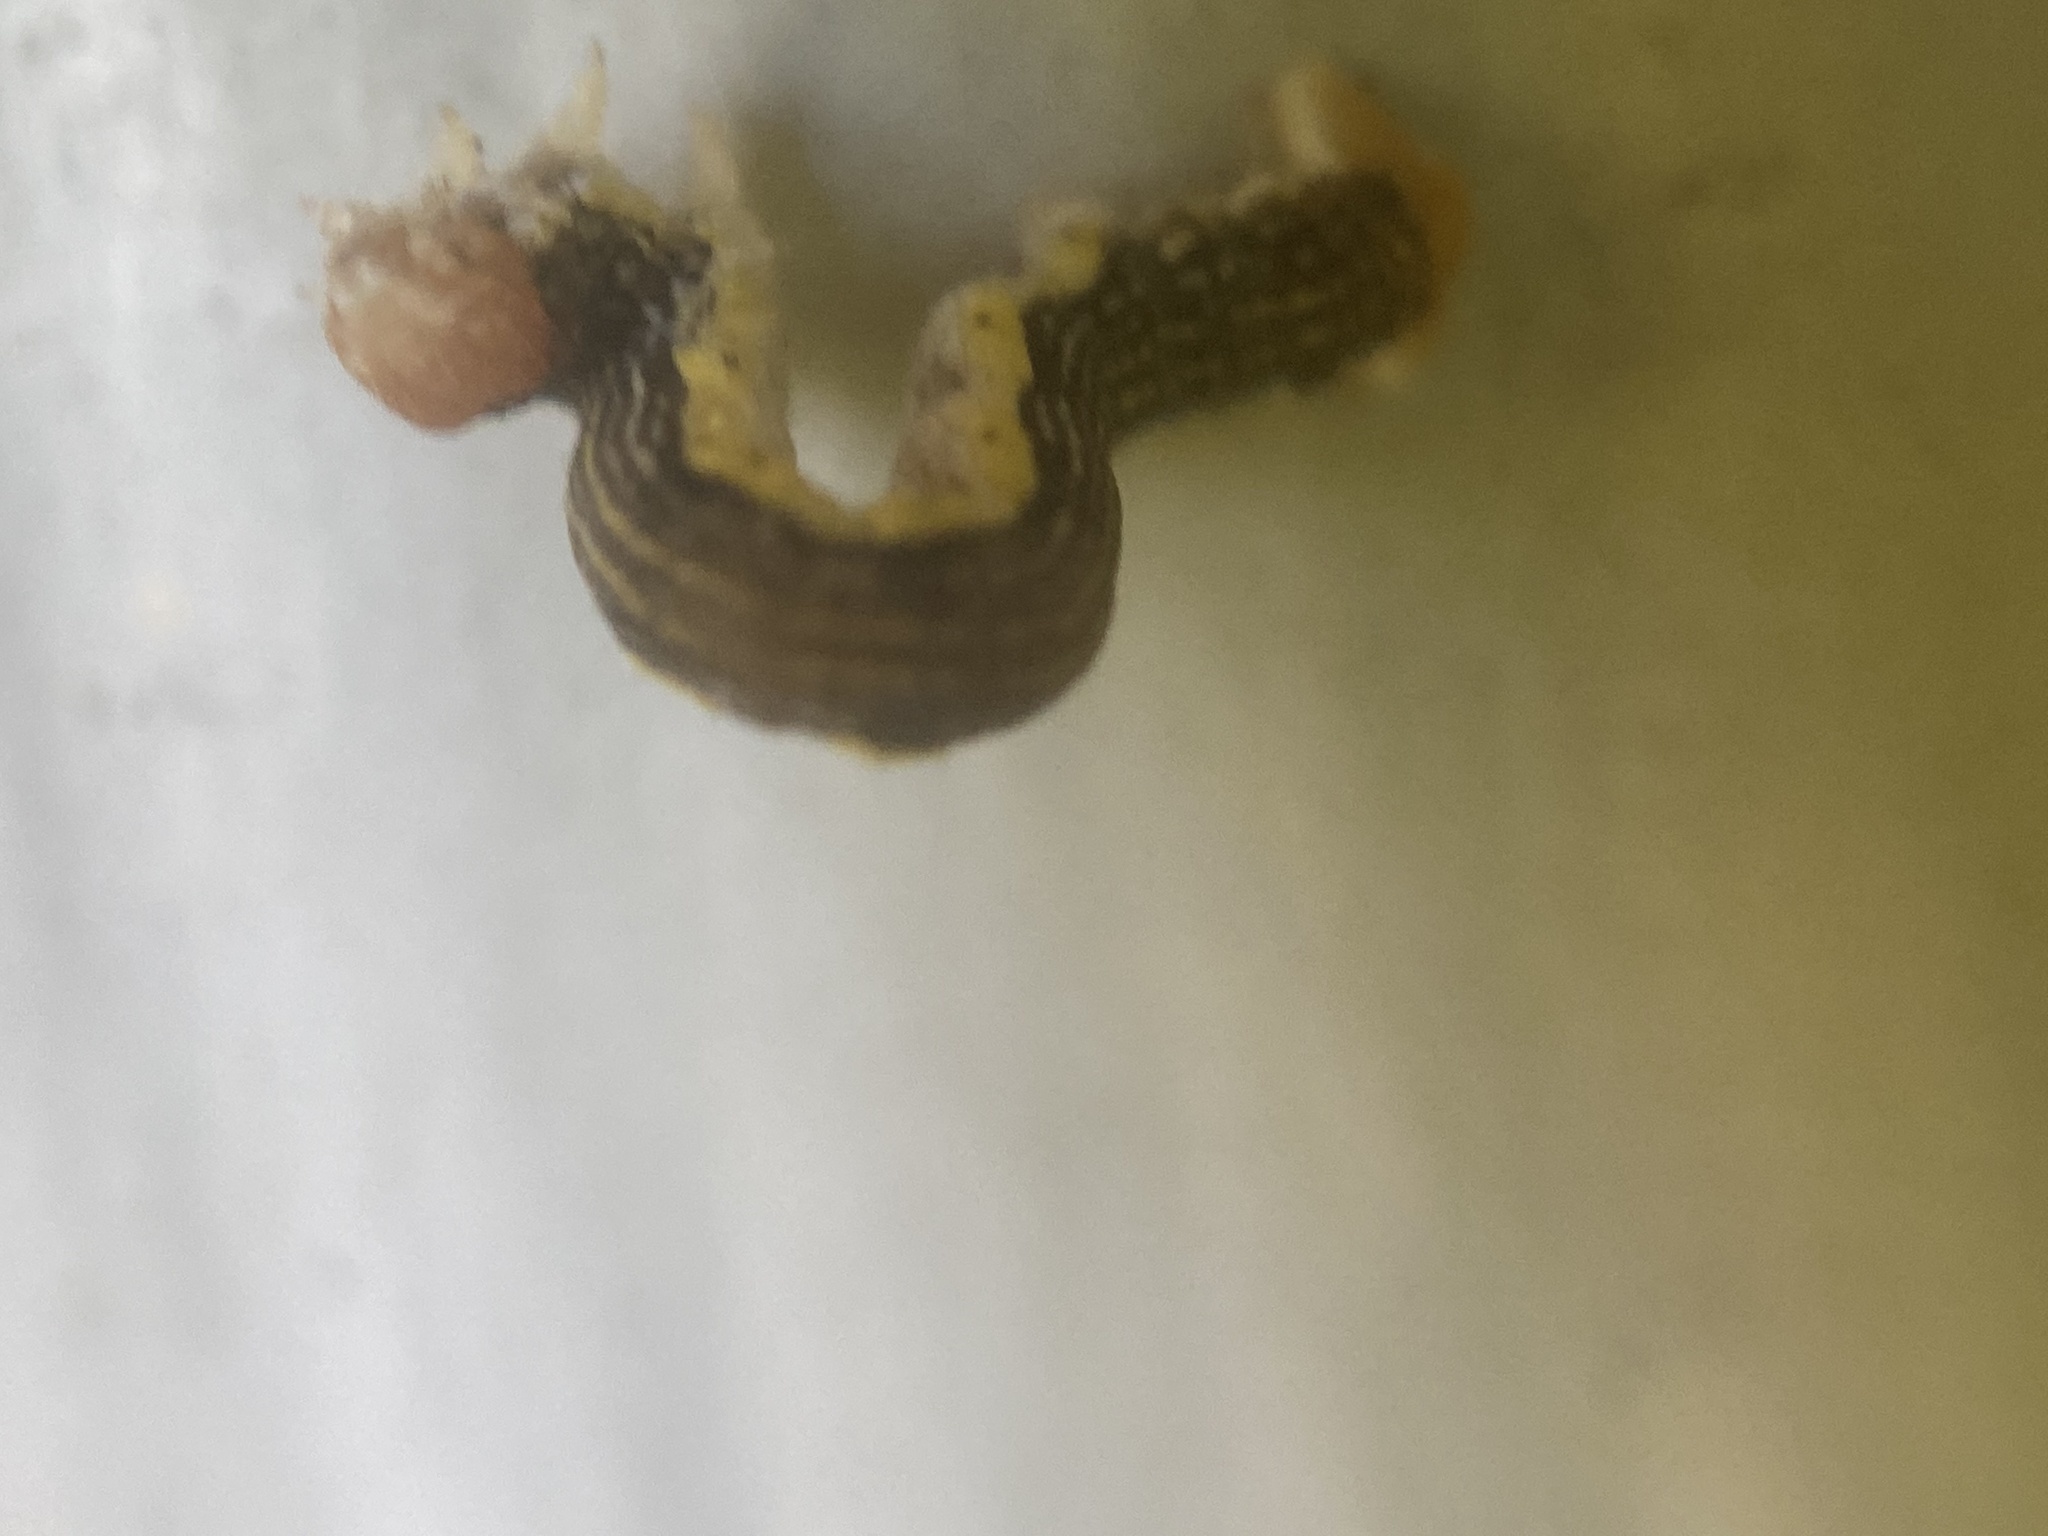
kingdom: Animalia
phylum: Arthropoda
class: Insecta
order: Lepidoptera
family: Geometridae
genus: Erannis
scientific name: Erannis tiliaria
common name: Linden looper
